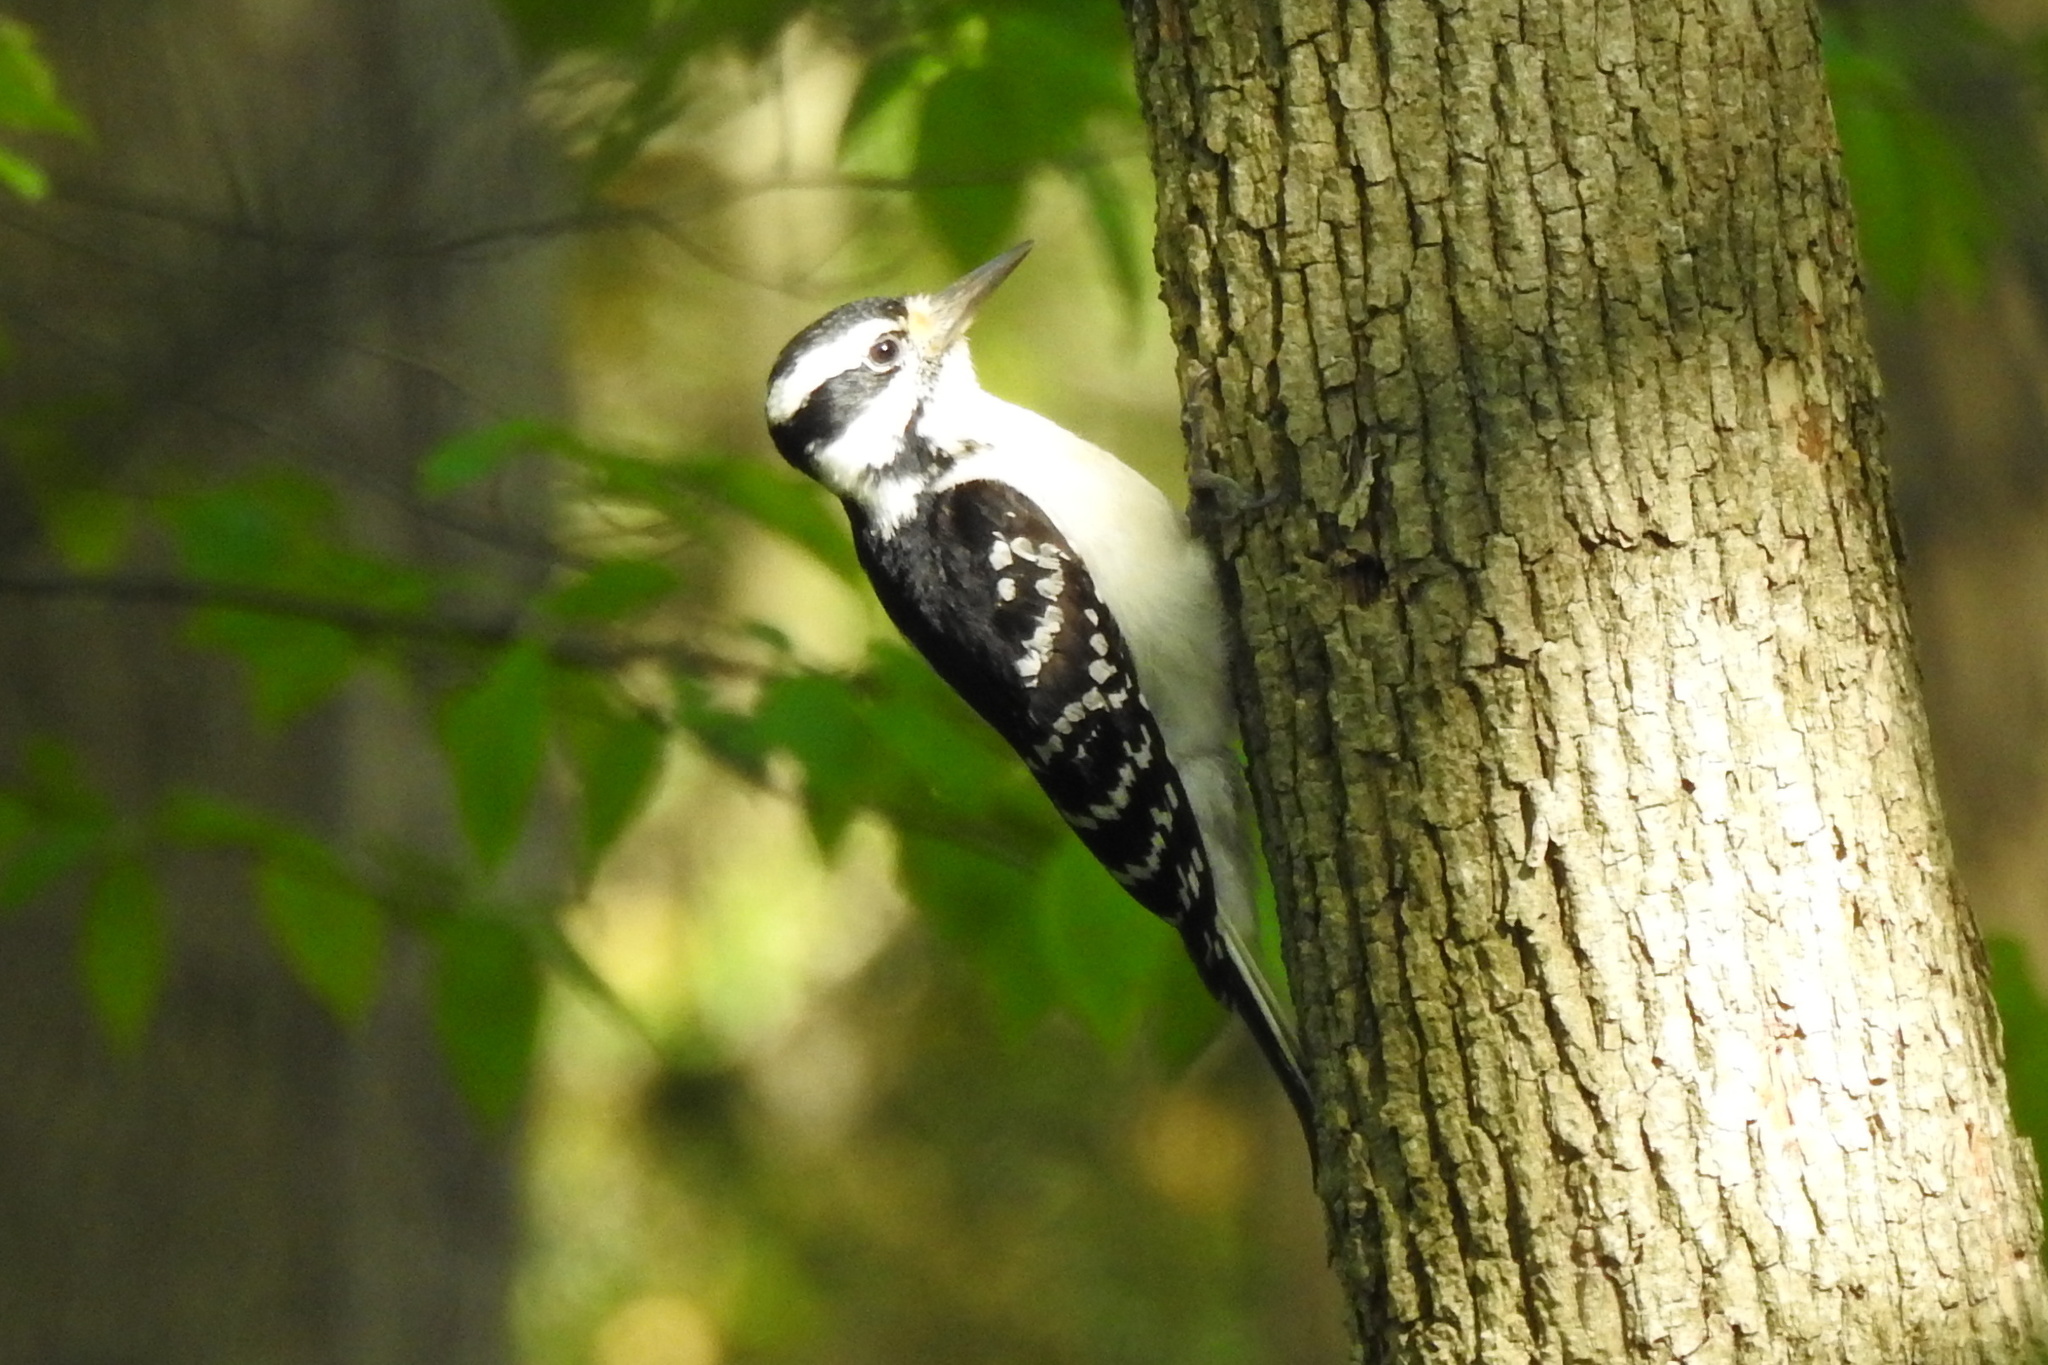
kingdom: Animalia
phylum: Chordata
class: Aves
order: Piciformes
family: Picidae
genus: Leuconotopicus
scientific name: Leuconotopicus villosus
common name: Hairy woodpecker
